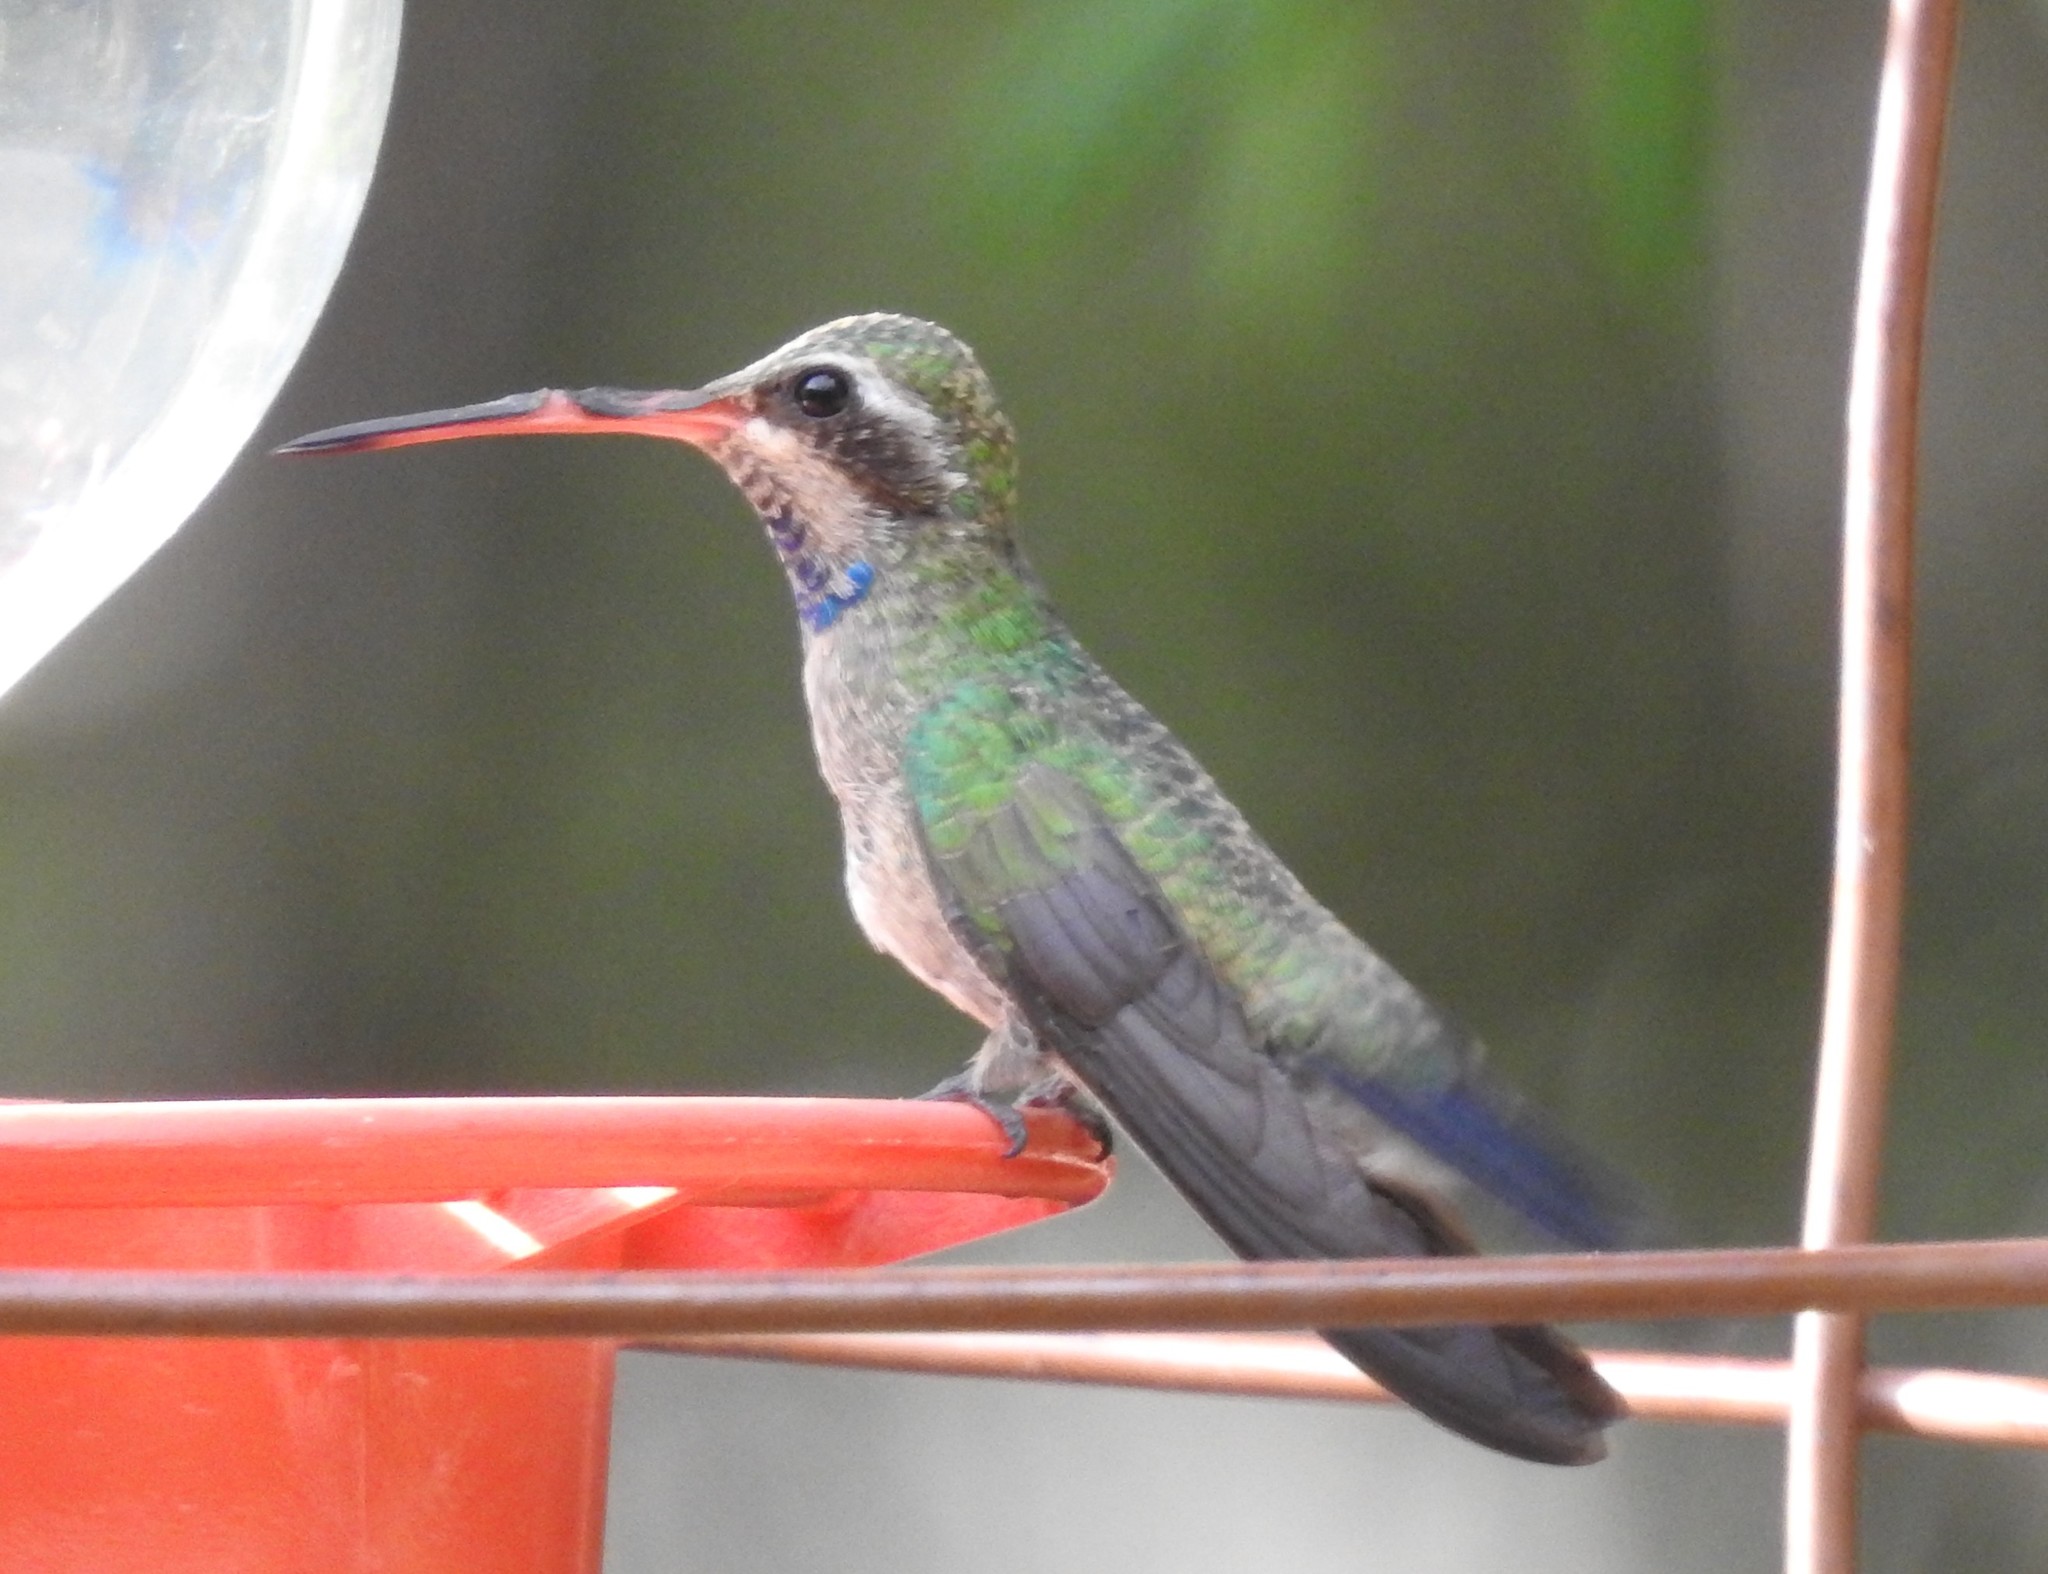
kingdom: Animalia
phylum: Chordata
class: Aves
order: Apodiformes
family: Trochilidae
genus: Cynanthus
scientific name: Cynanthus latirostris
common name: Broad-billed hummingbird
